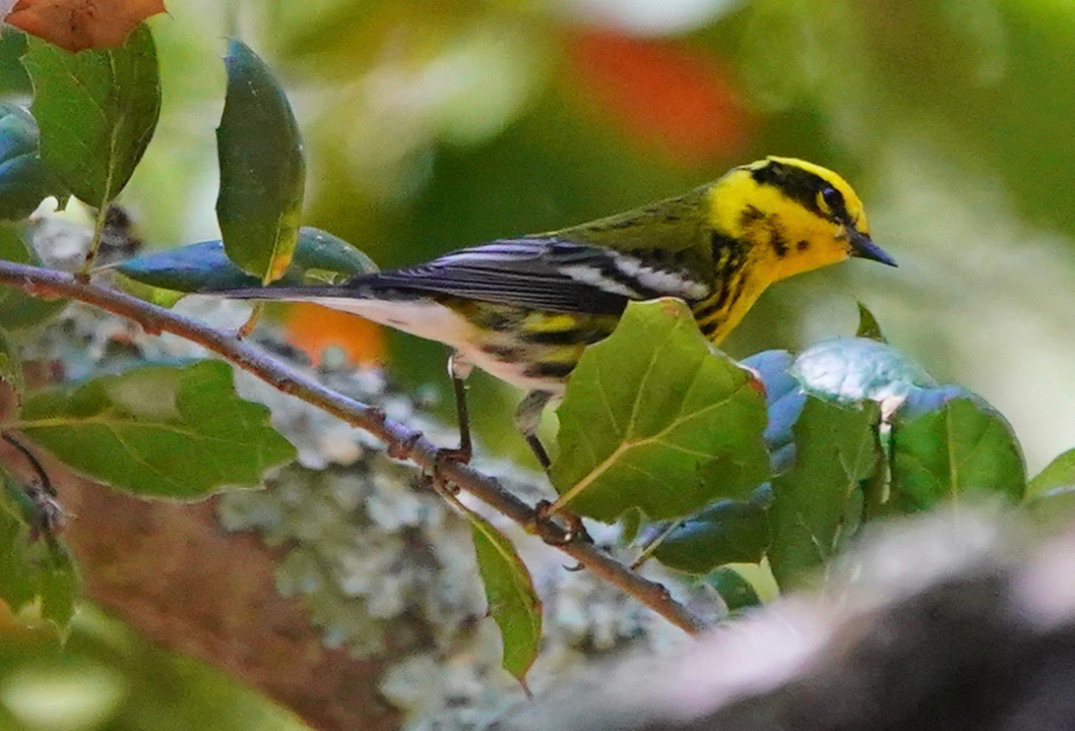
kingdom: Animalia
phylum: Chordata
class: Aves
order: Passeriformes
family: Parulidae
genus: Setophaga
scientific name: Setophaga townsendi
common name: Townsend's warbler
